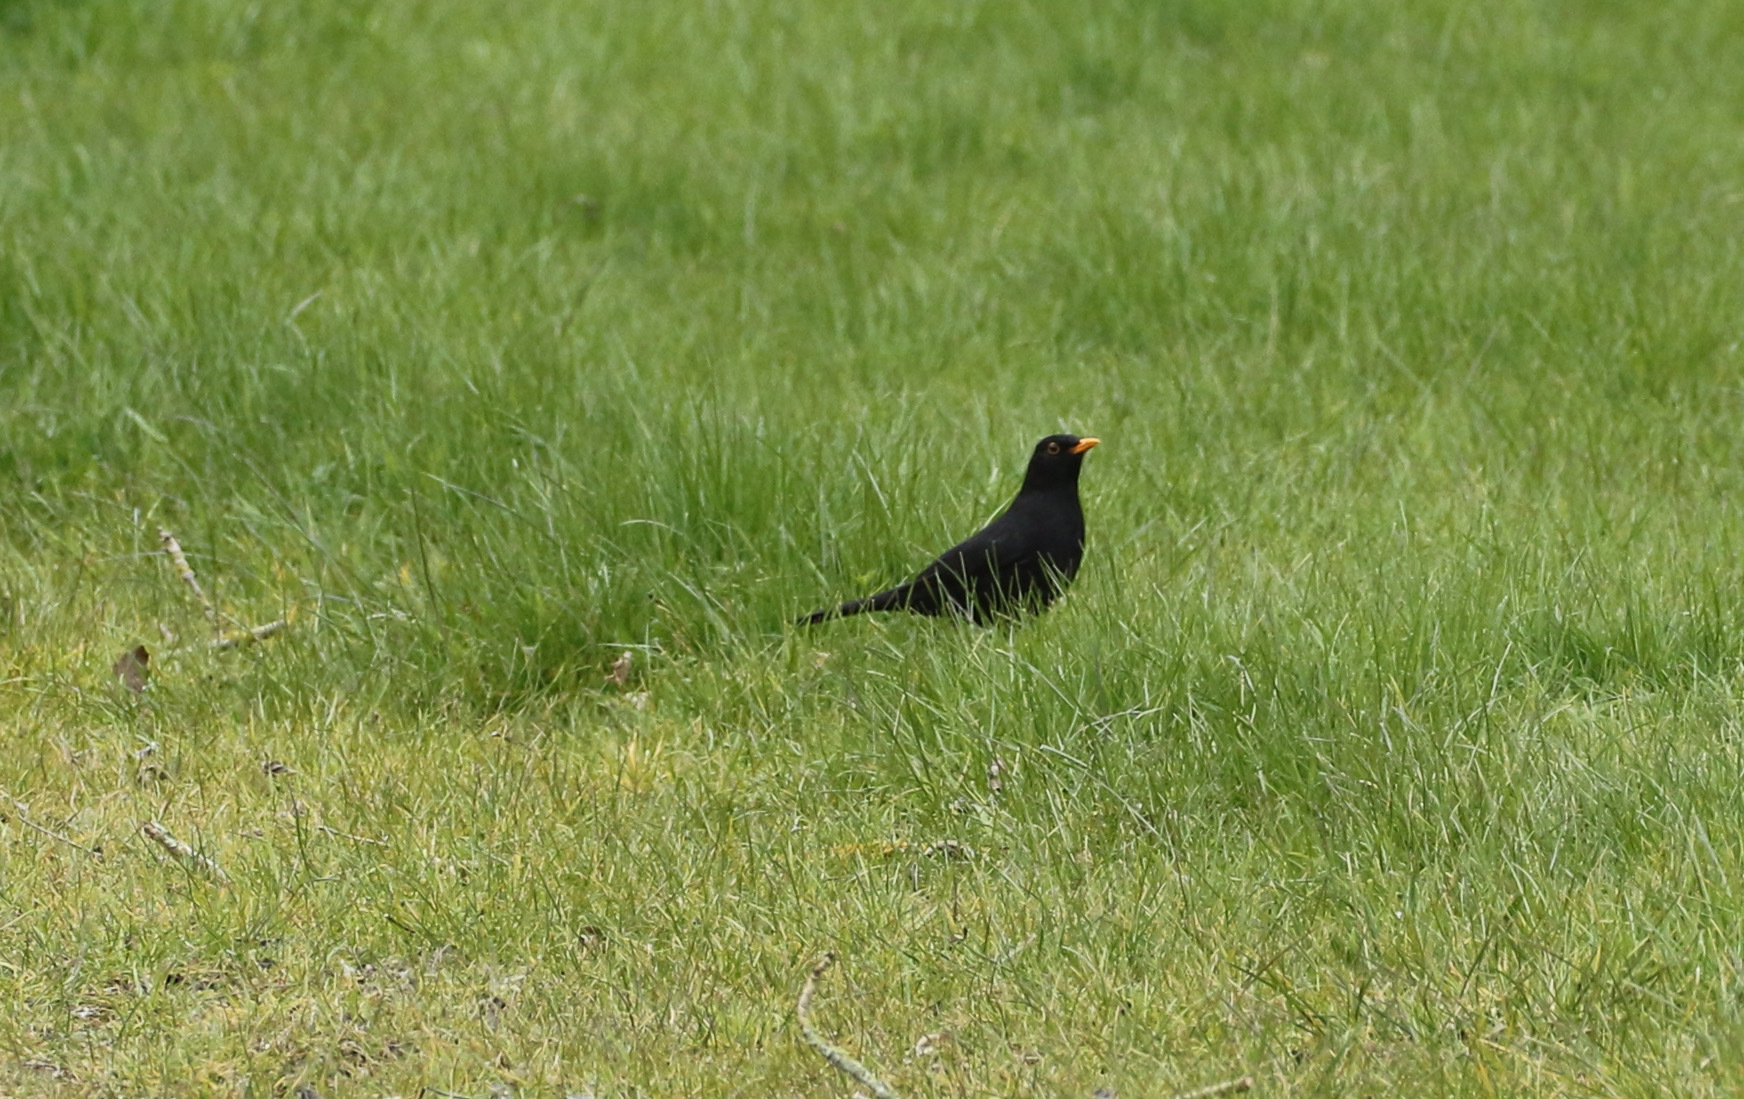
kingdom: Animalia
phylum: Chordata
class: Aves
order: Passeriformes
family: Turdidae
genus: Turdus
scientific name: Turdus merula
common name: Common blackbird
